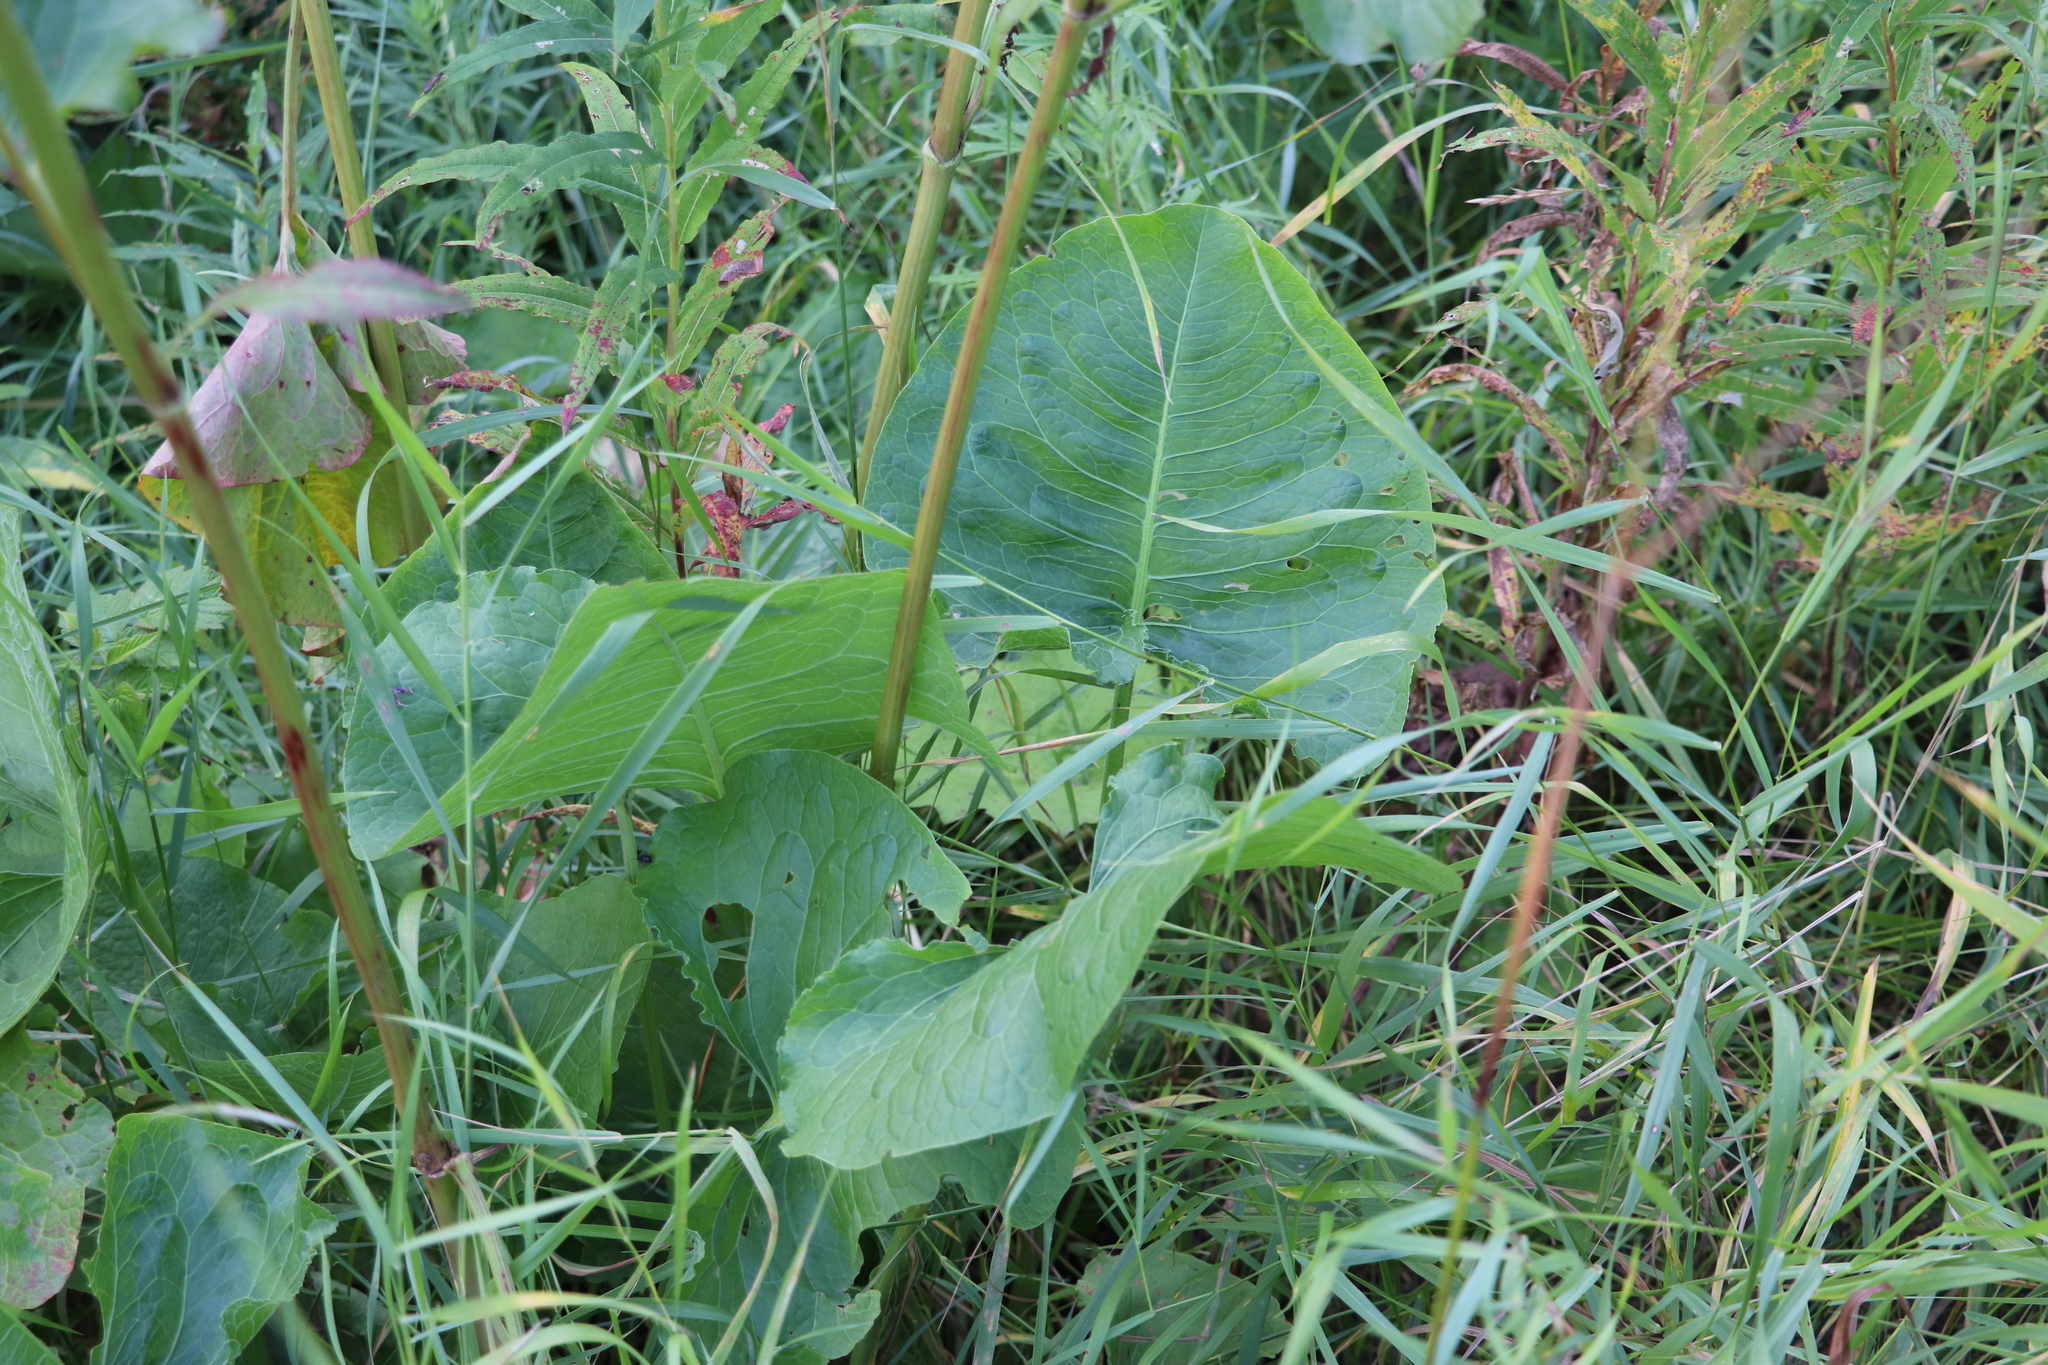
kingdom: Plantae
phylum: Tracheophyta
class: Magnoliopsida
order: Caryophyllales
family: Polygonaceae
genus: Rumex
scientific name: Rumex confertus
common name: Russian dock
